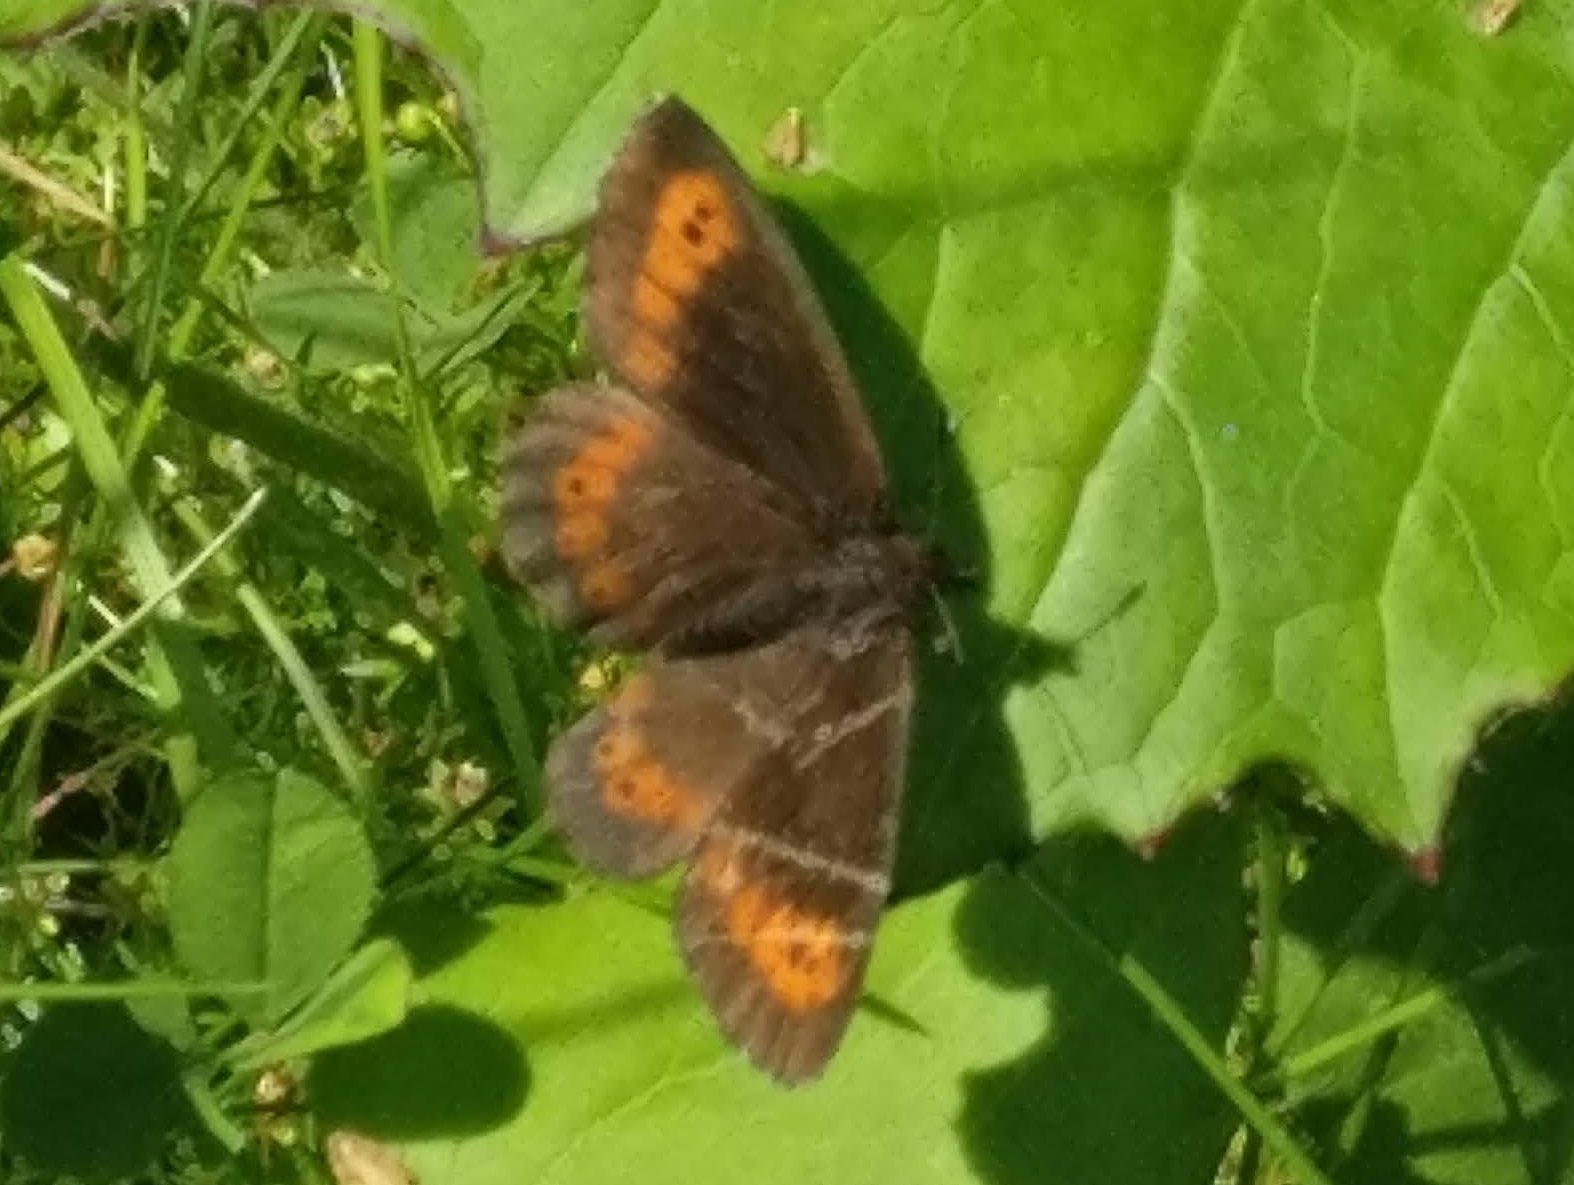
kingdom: Animalia
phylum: Arthropoda
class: Insecta
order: Lepidoptera
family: Nymphalidae
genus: Erebia
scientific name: Erebia ligea
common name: Arran brown
